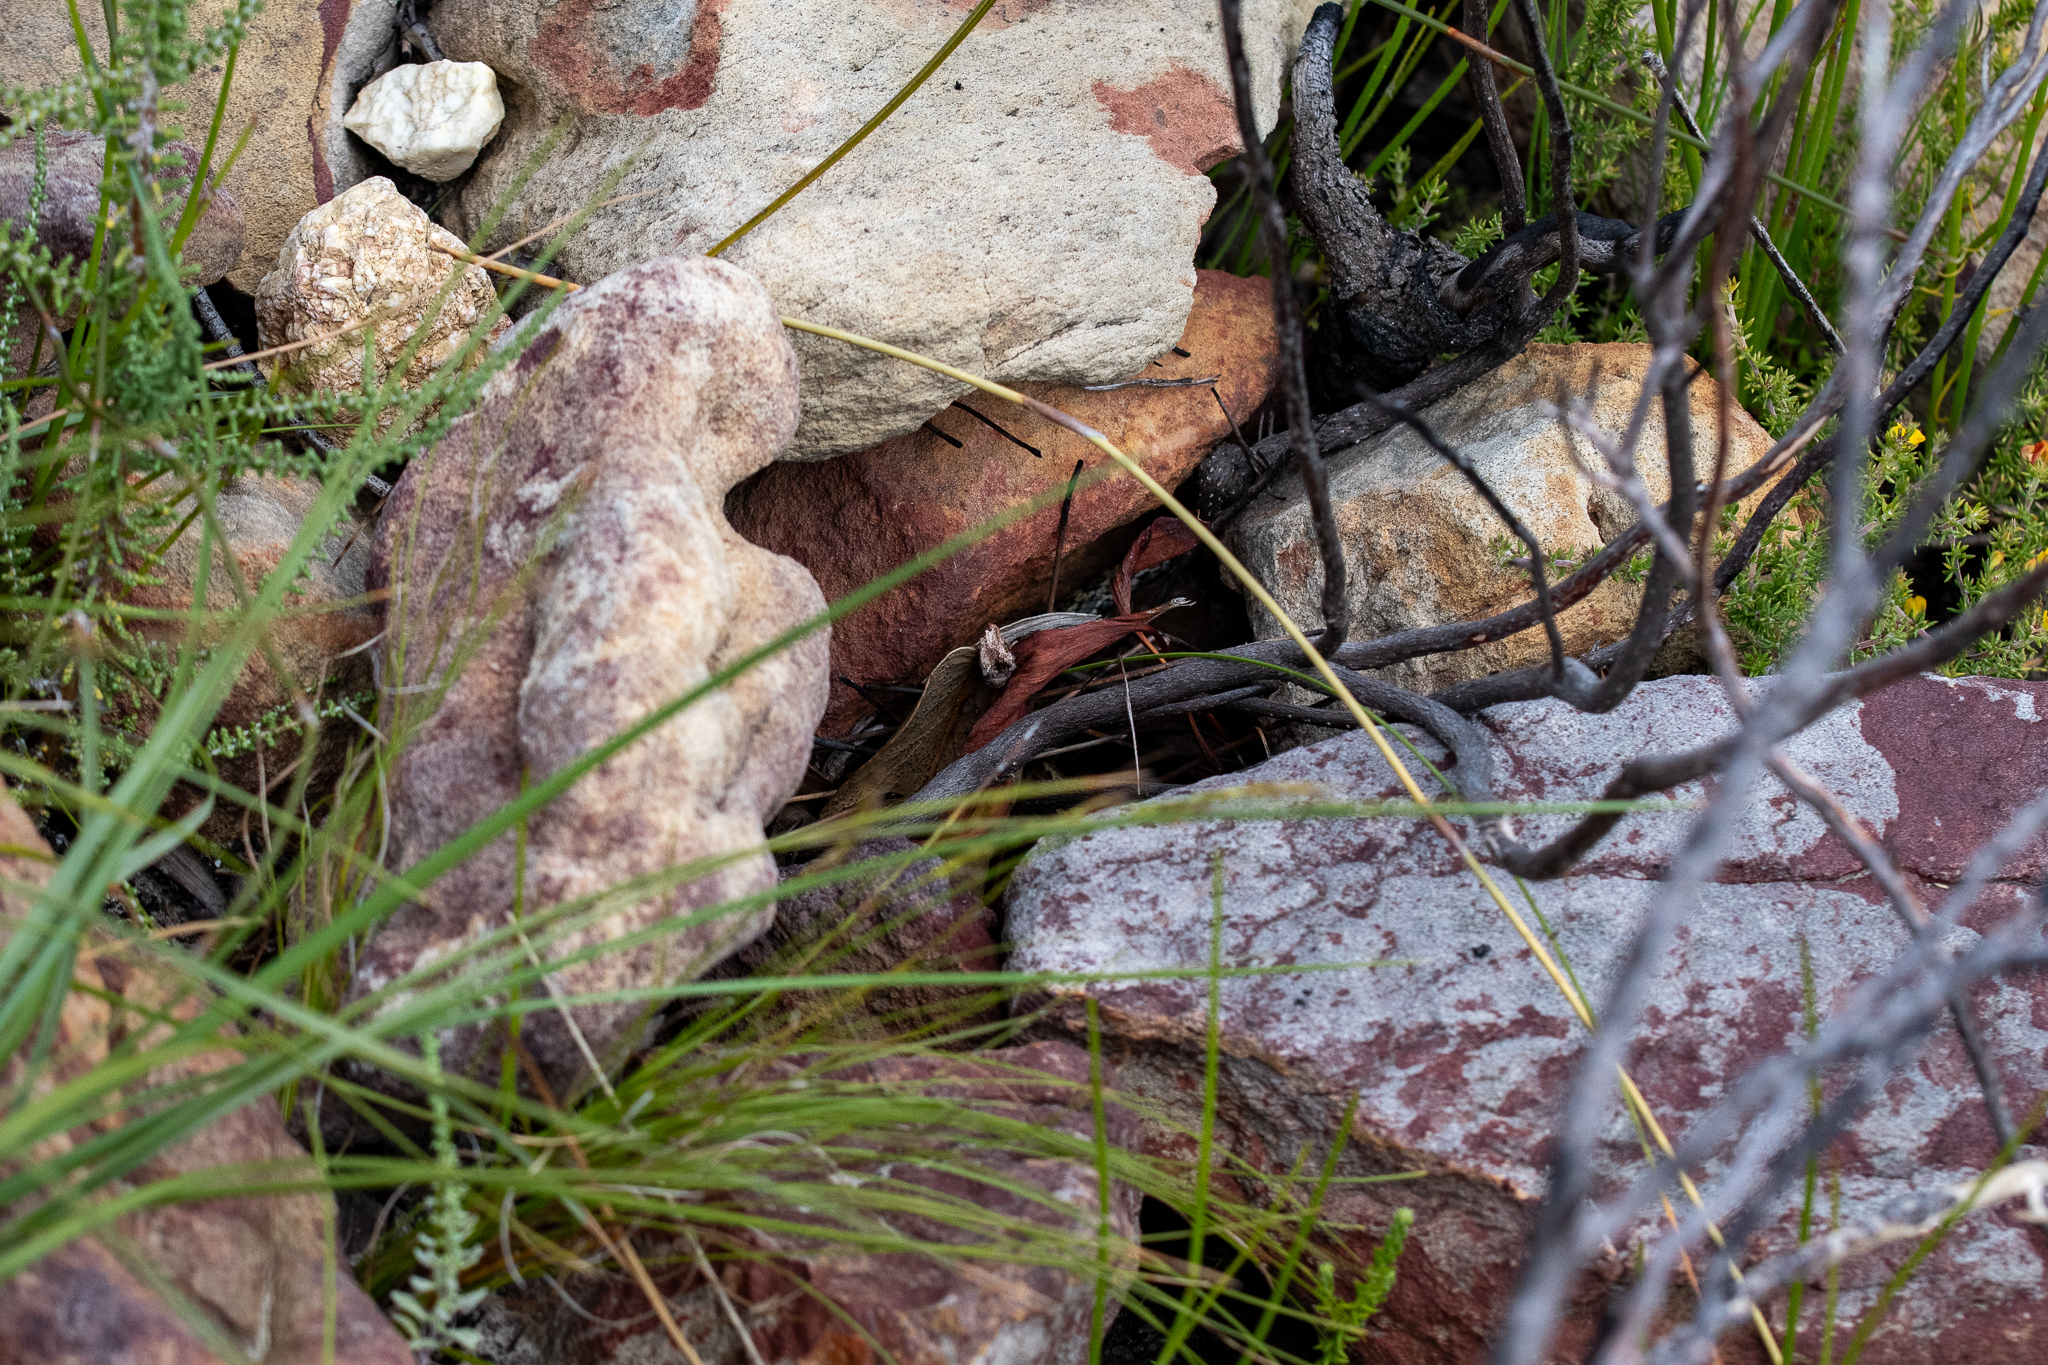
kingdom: Animalia
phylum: Chordata
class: Squamata
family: Psammophiidae
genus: Psammophylax
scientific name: Psammophylax rhombeatus
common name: Rhombic skaapsteker
